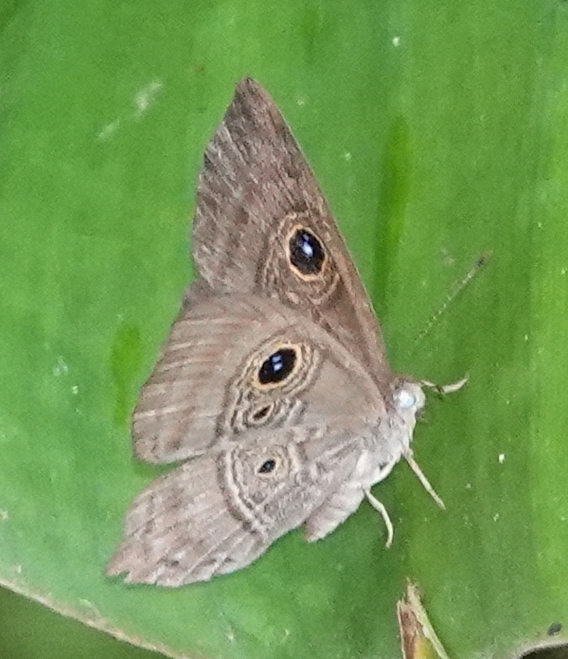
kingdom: Animalia
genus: Mesosemia
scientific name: Mesosemia
